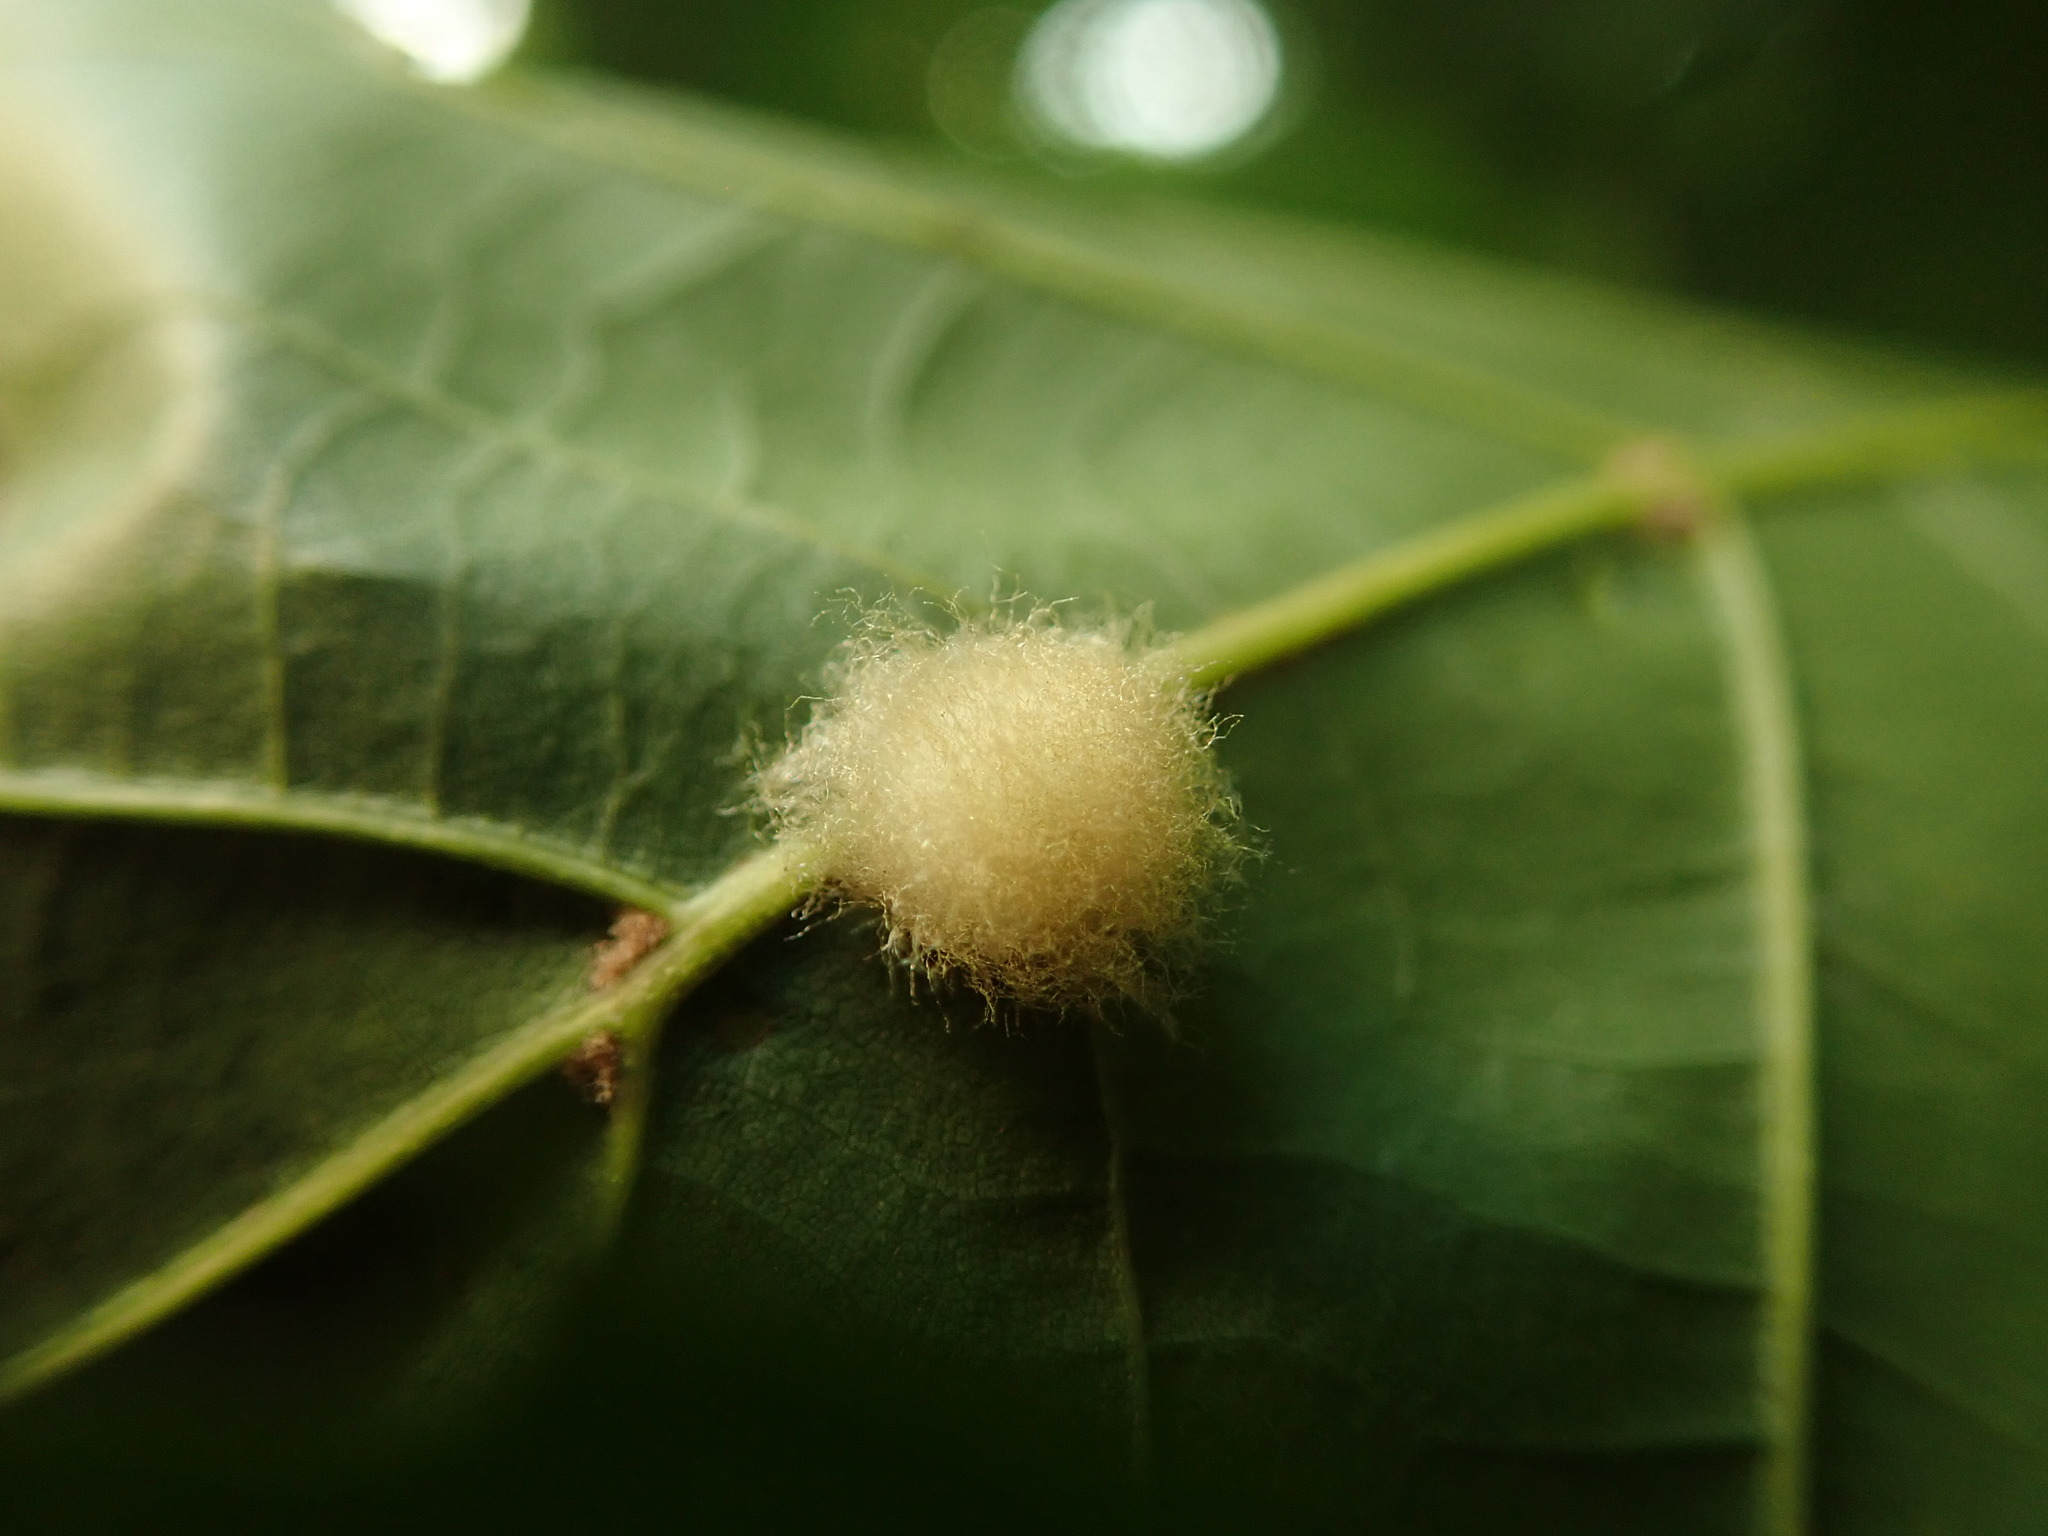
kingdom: Animalia
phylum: Arthropoda
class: Insecta
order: Hymenoptera
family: Cynipidae
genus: Callirhytis
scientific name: Callirhytis
